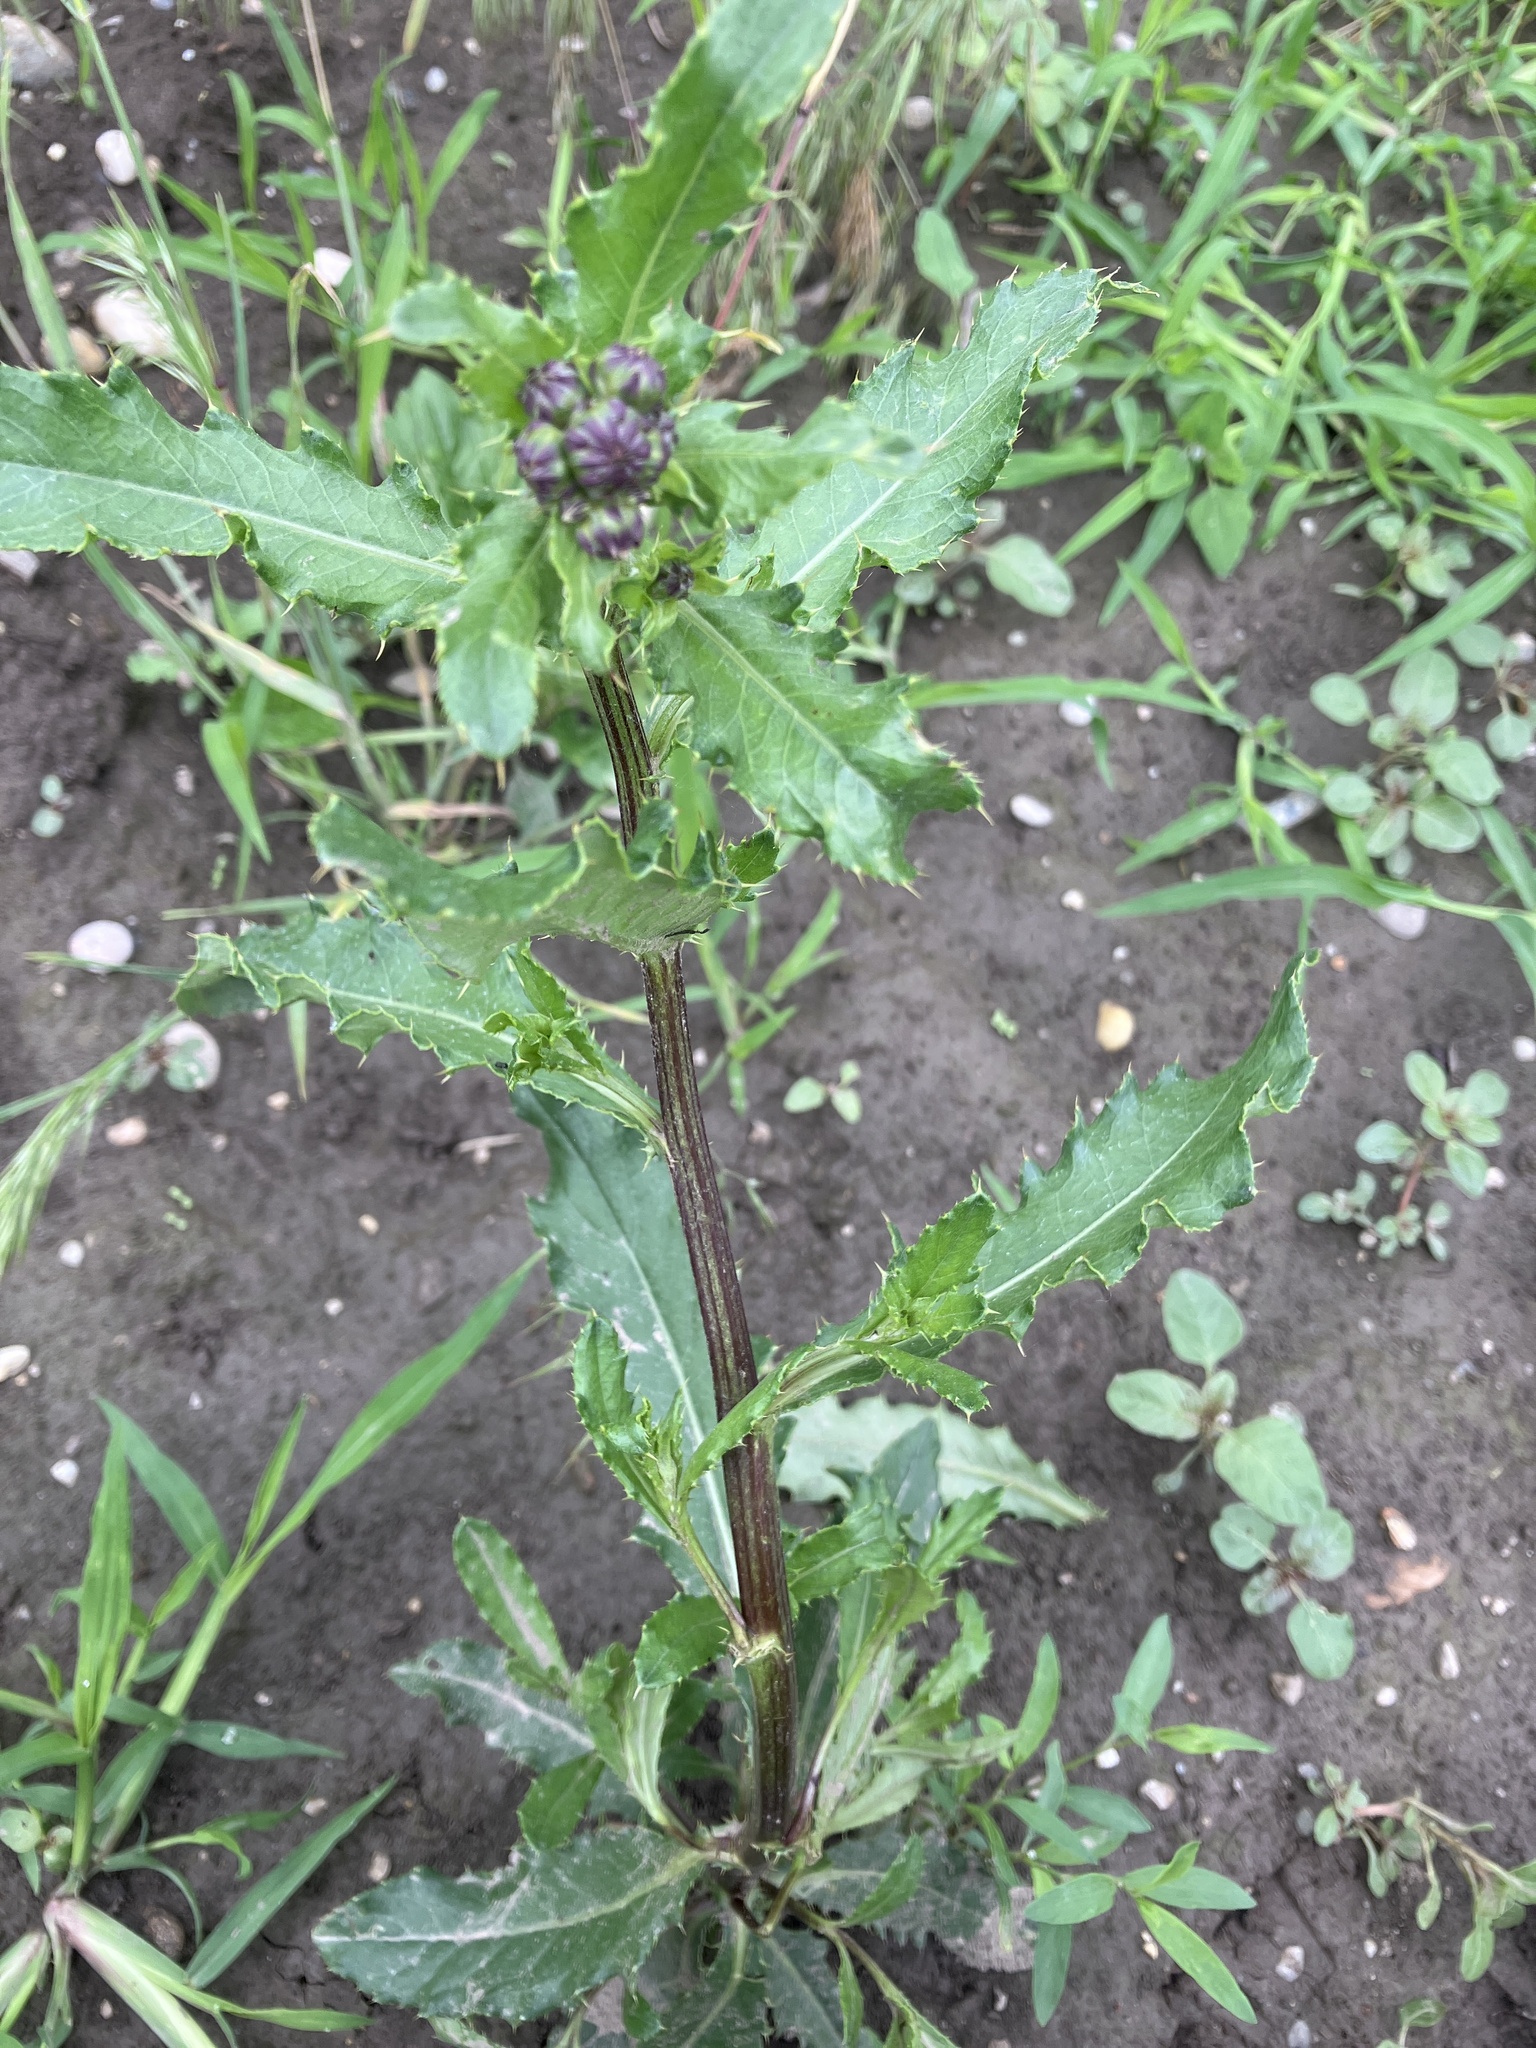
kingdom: Plantae
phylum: Tracheophyta
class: Magnoliopsida
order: Asterales
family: Asteraceae
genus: Cirsium
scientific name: Cirsium arvense
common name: Creeping thistle
